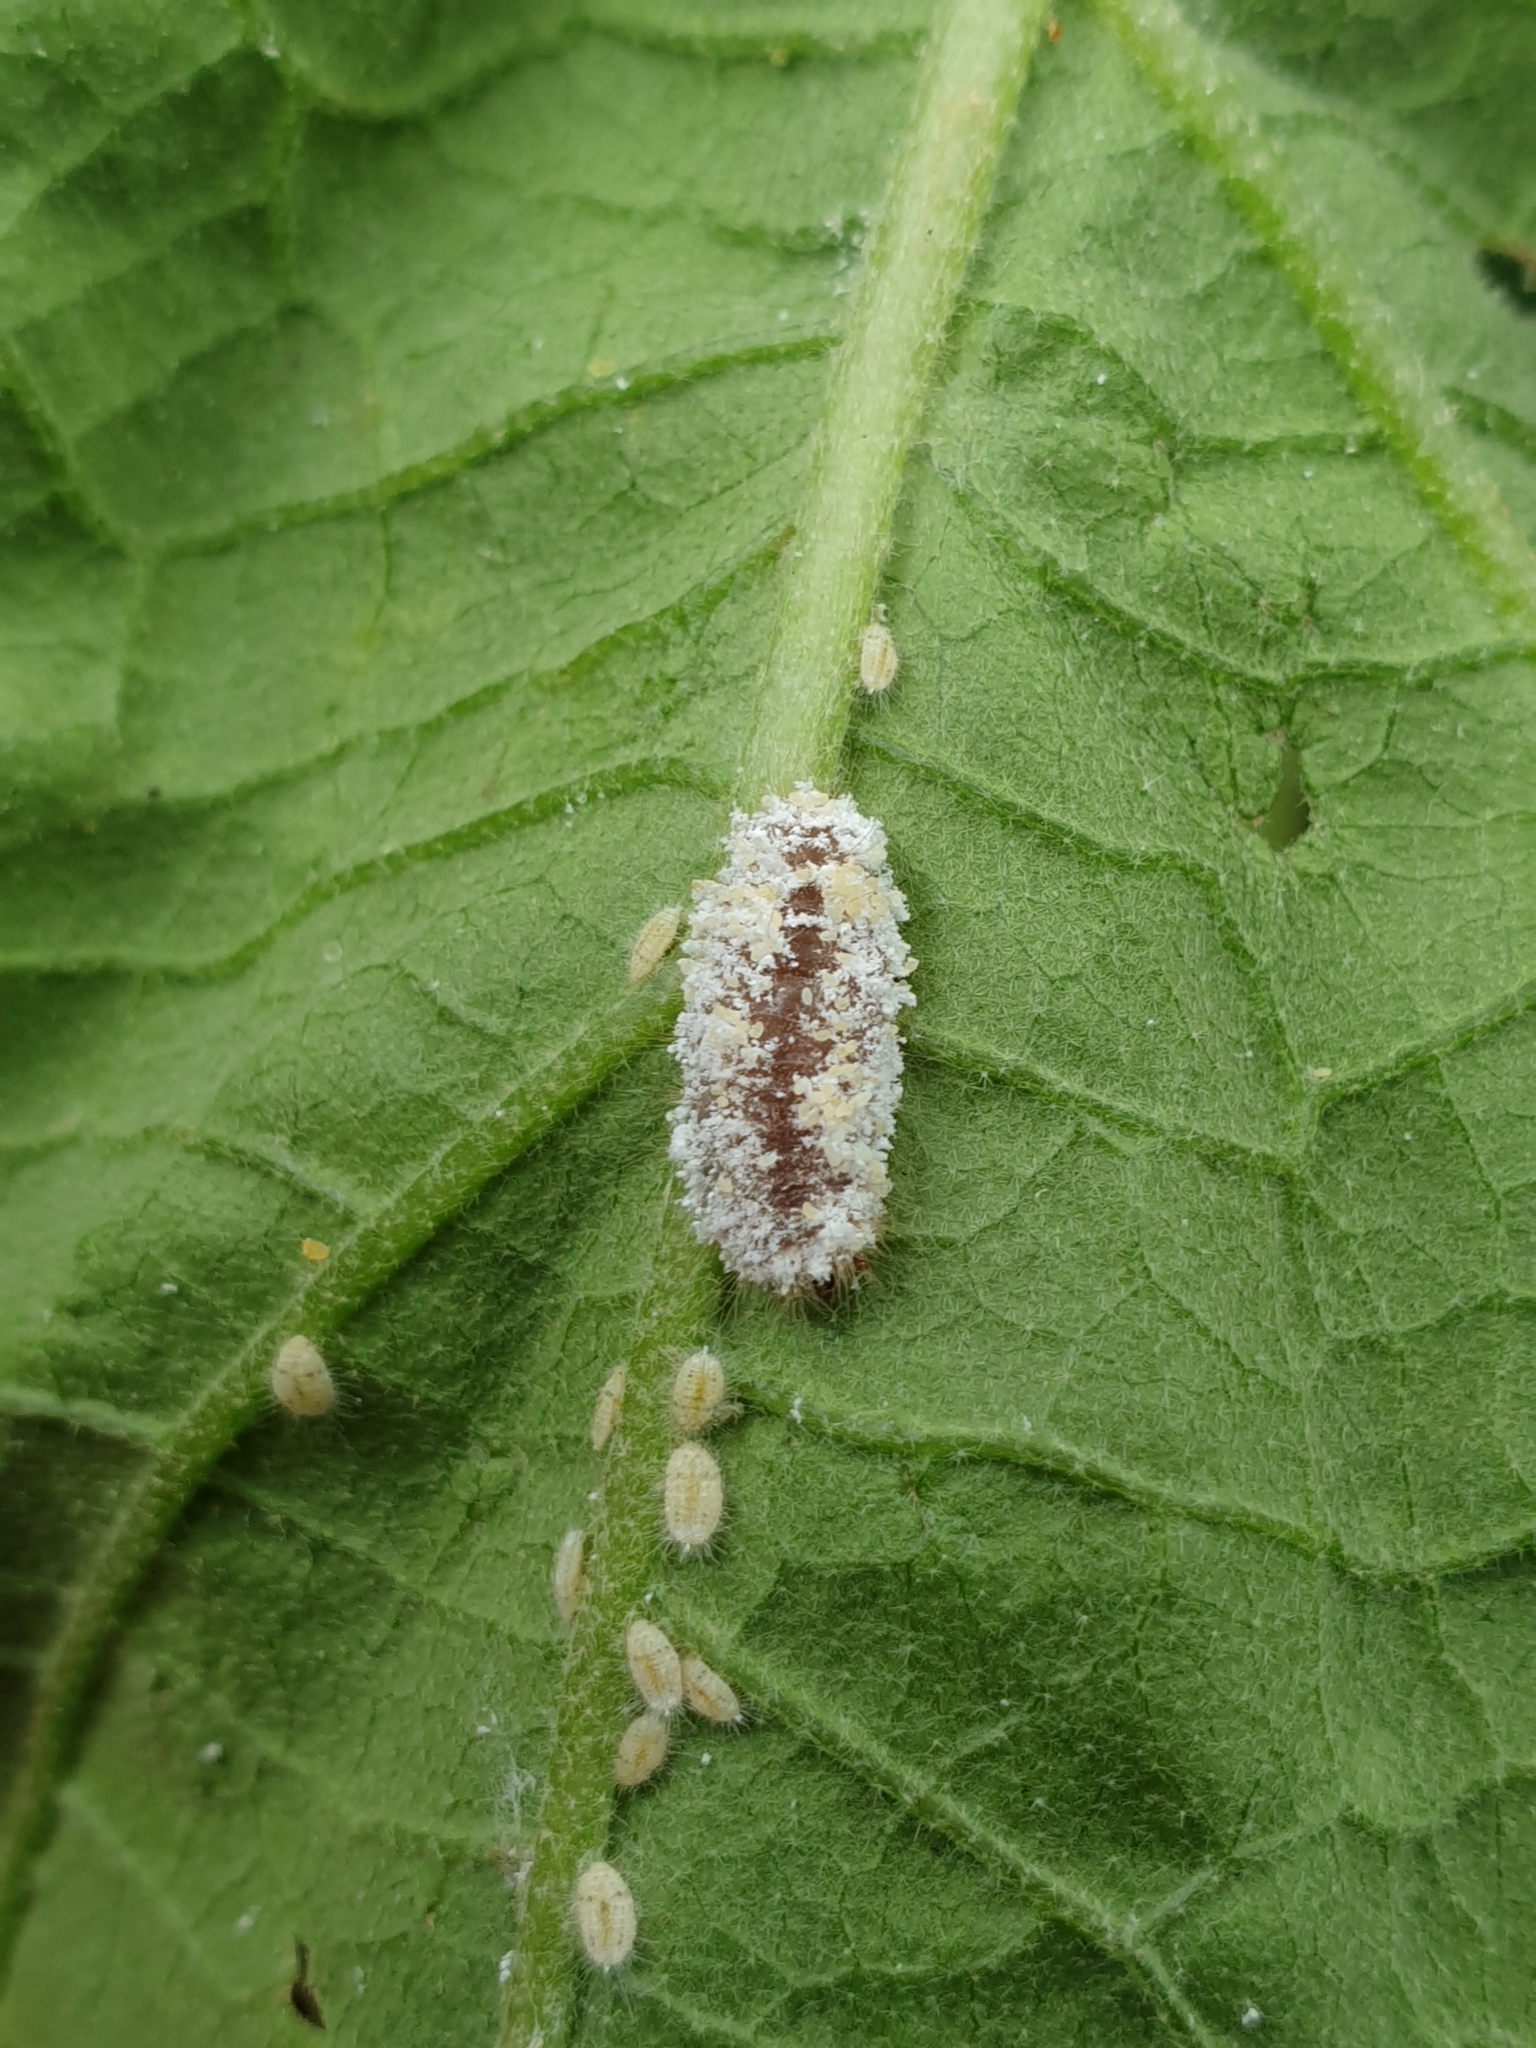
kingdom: Animalia
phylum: Arthropoda
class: Insecta
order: Lepidoptera
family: Lycaenidae
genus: Spalgis
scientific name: Spalgis epius
